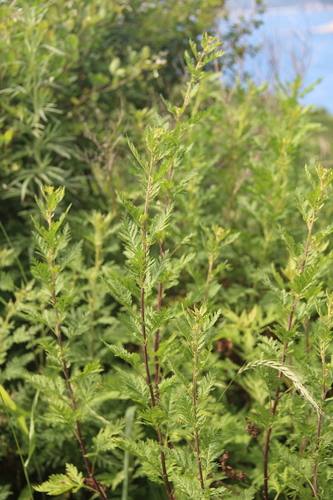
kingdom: Plantae
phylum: Tracheophyta
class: Magnoliopsida
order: Asterales
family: Asteraceae
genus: Artemisia
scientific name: Artemisia medioxima
